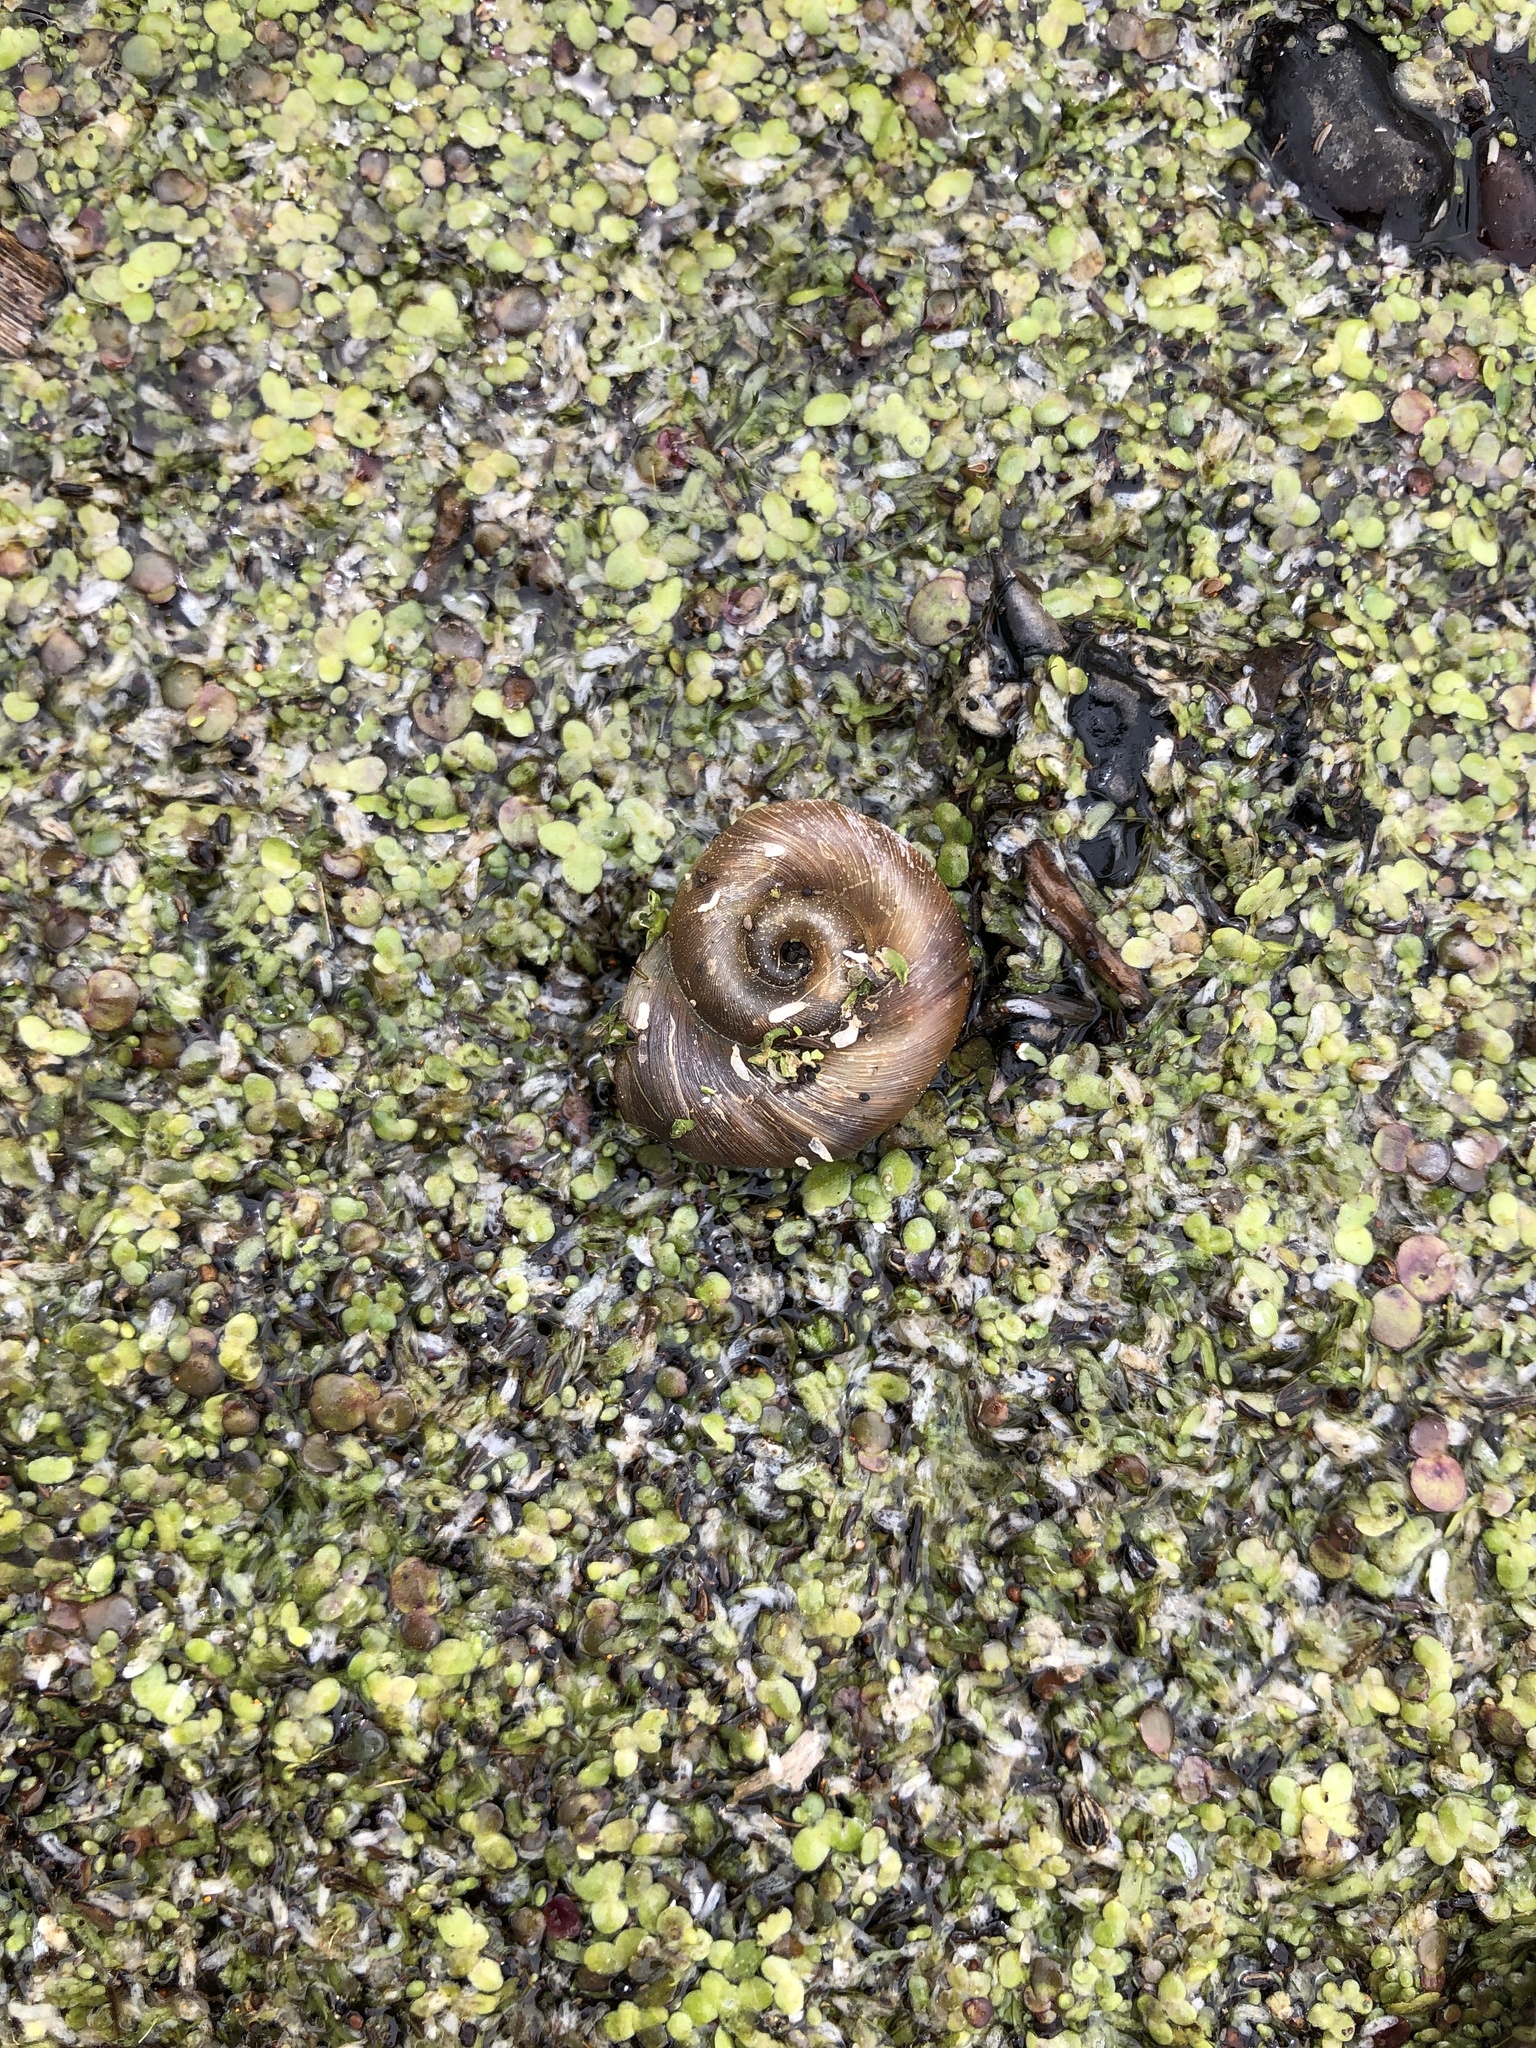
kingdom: Animalia
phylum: Mollusca
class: Gastropoda
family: Planorbidae
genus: Planorbella
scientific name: Planorbella trivolvis
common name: Marsh rams-horn
